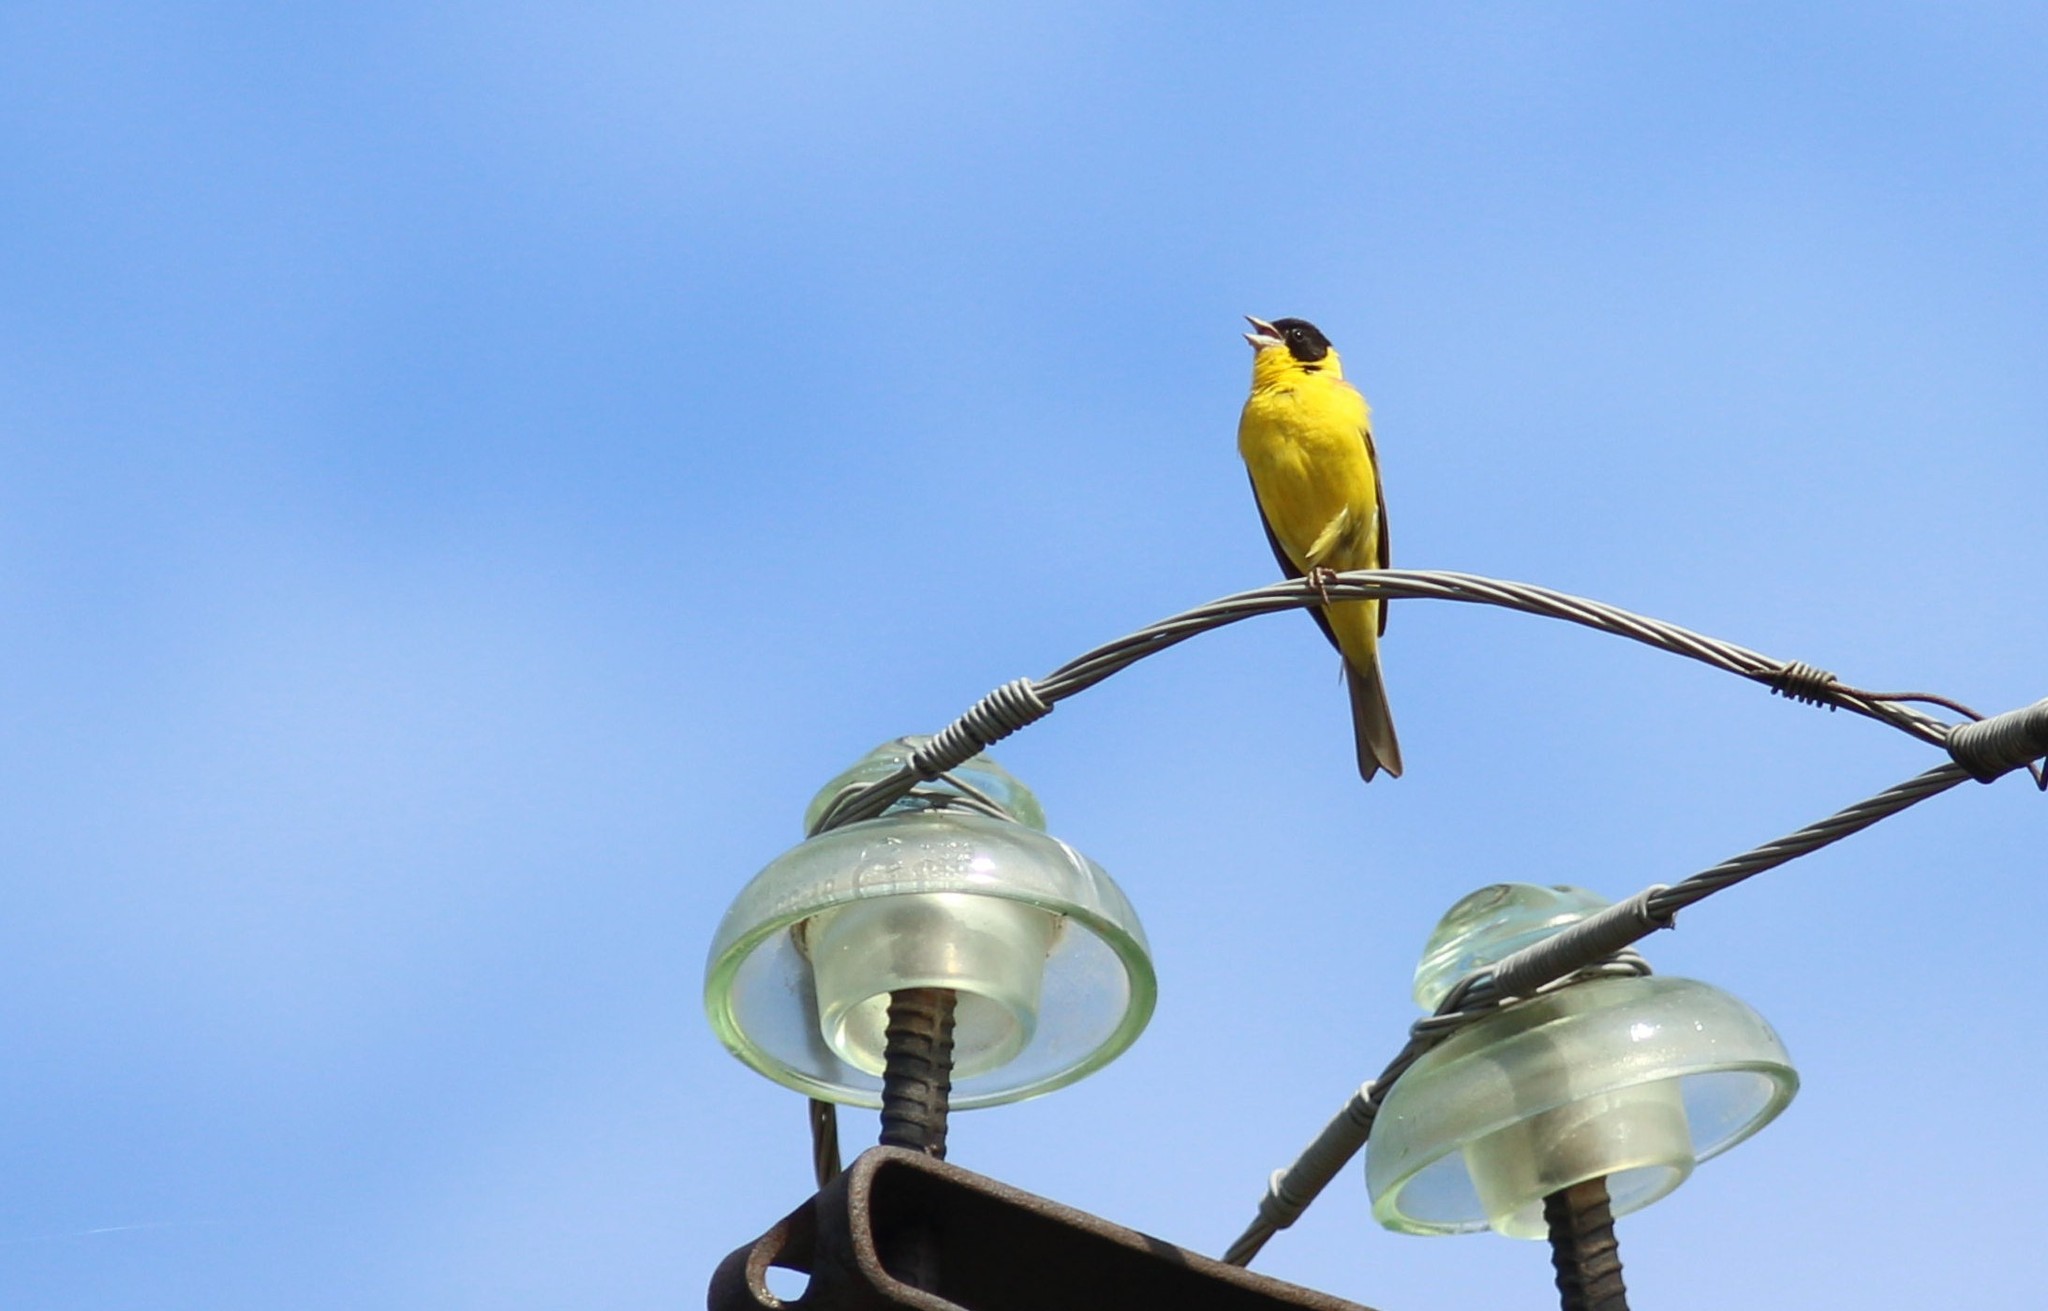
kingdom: Animalia
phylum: Chordata
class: Aves
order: Passeriformes
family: Emberizidae
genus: Emberiza
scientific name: Emberiza melanocephala
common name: Black-headed bunting
